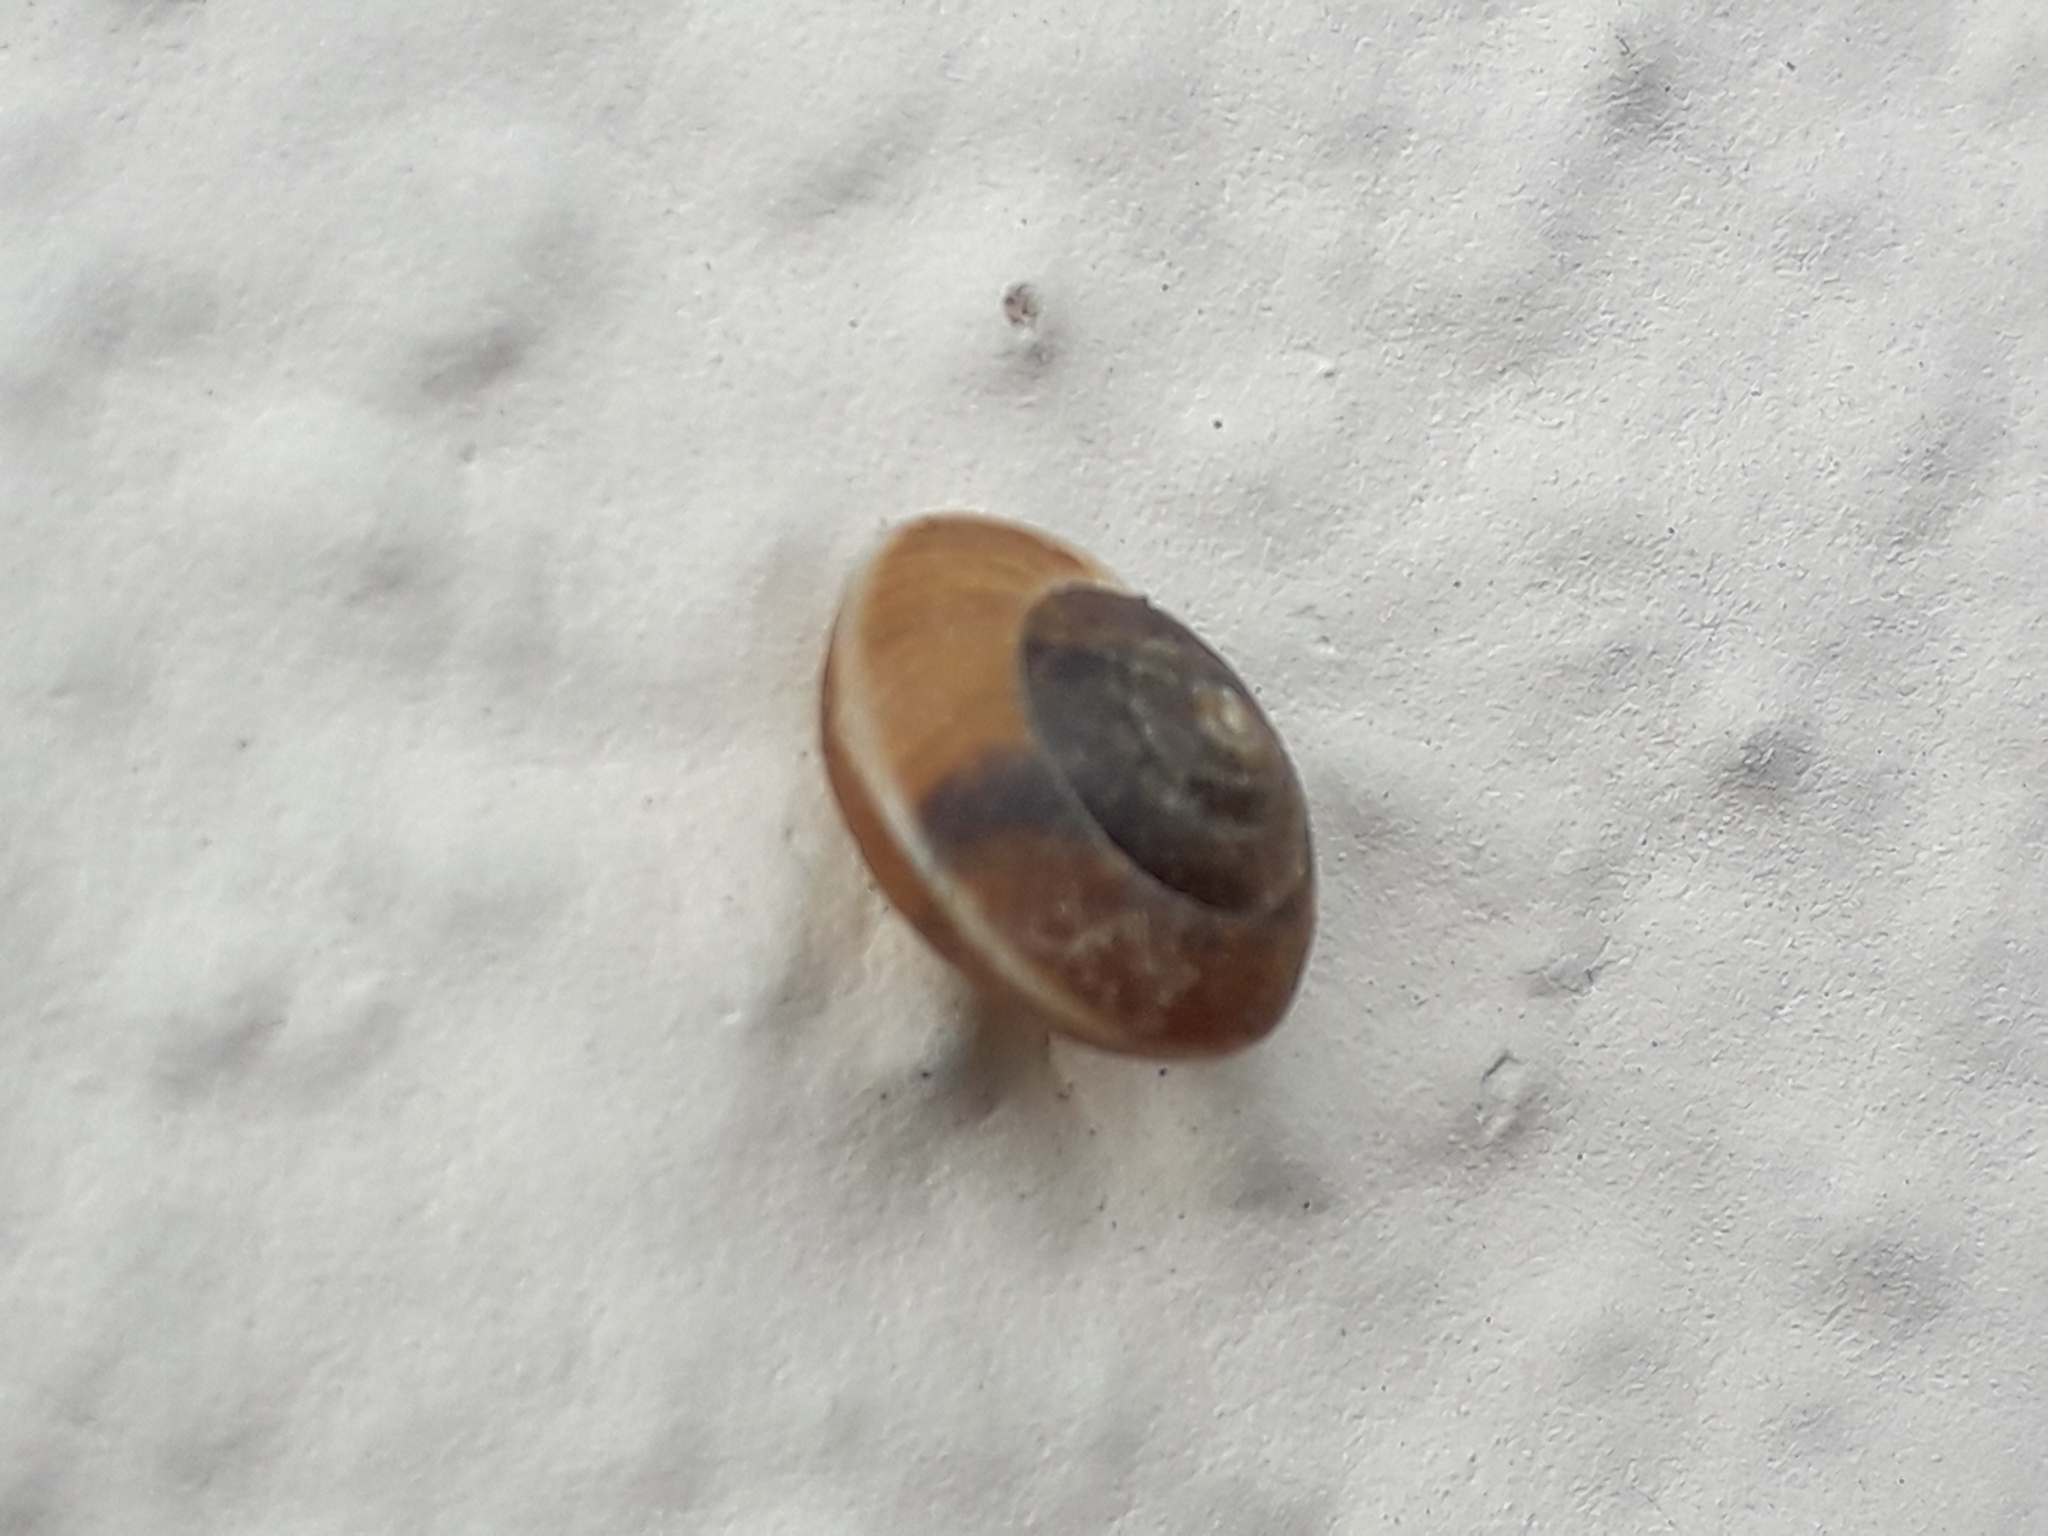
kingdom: Animalia
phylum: Mollusca
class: Gastropoda
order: Stylommatophora
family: Hygromiidae
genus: Hygromia
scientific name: Hygromia cinctella
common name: Girdled snail
